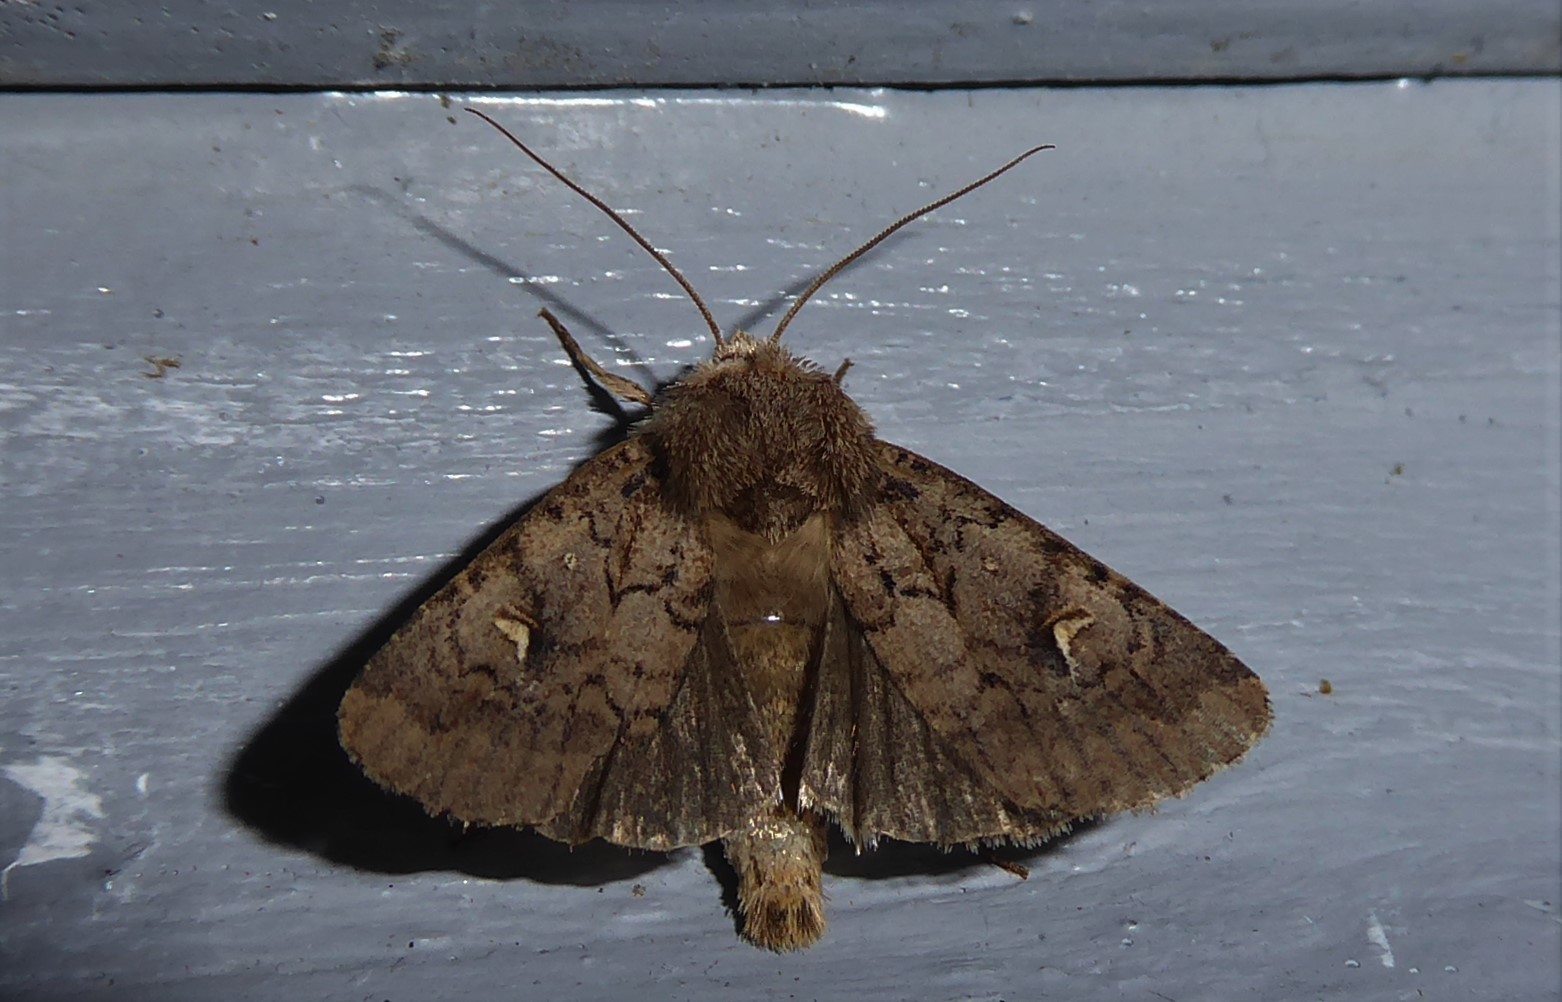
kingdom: Animalia
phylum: Arthropoda
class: Insecta
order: Lepidoptera
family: Noctuidae
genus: Proteuxoa
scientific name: Proteuxoa tetronycha
